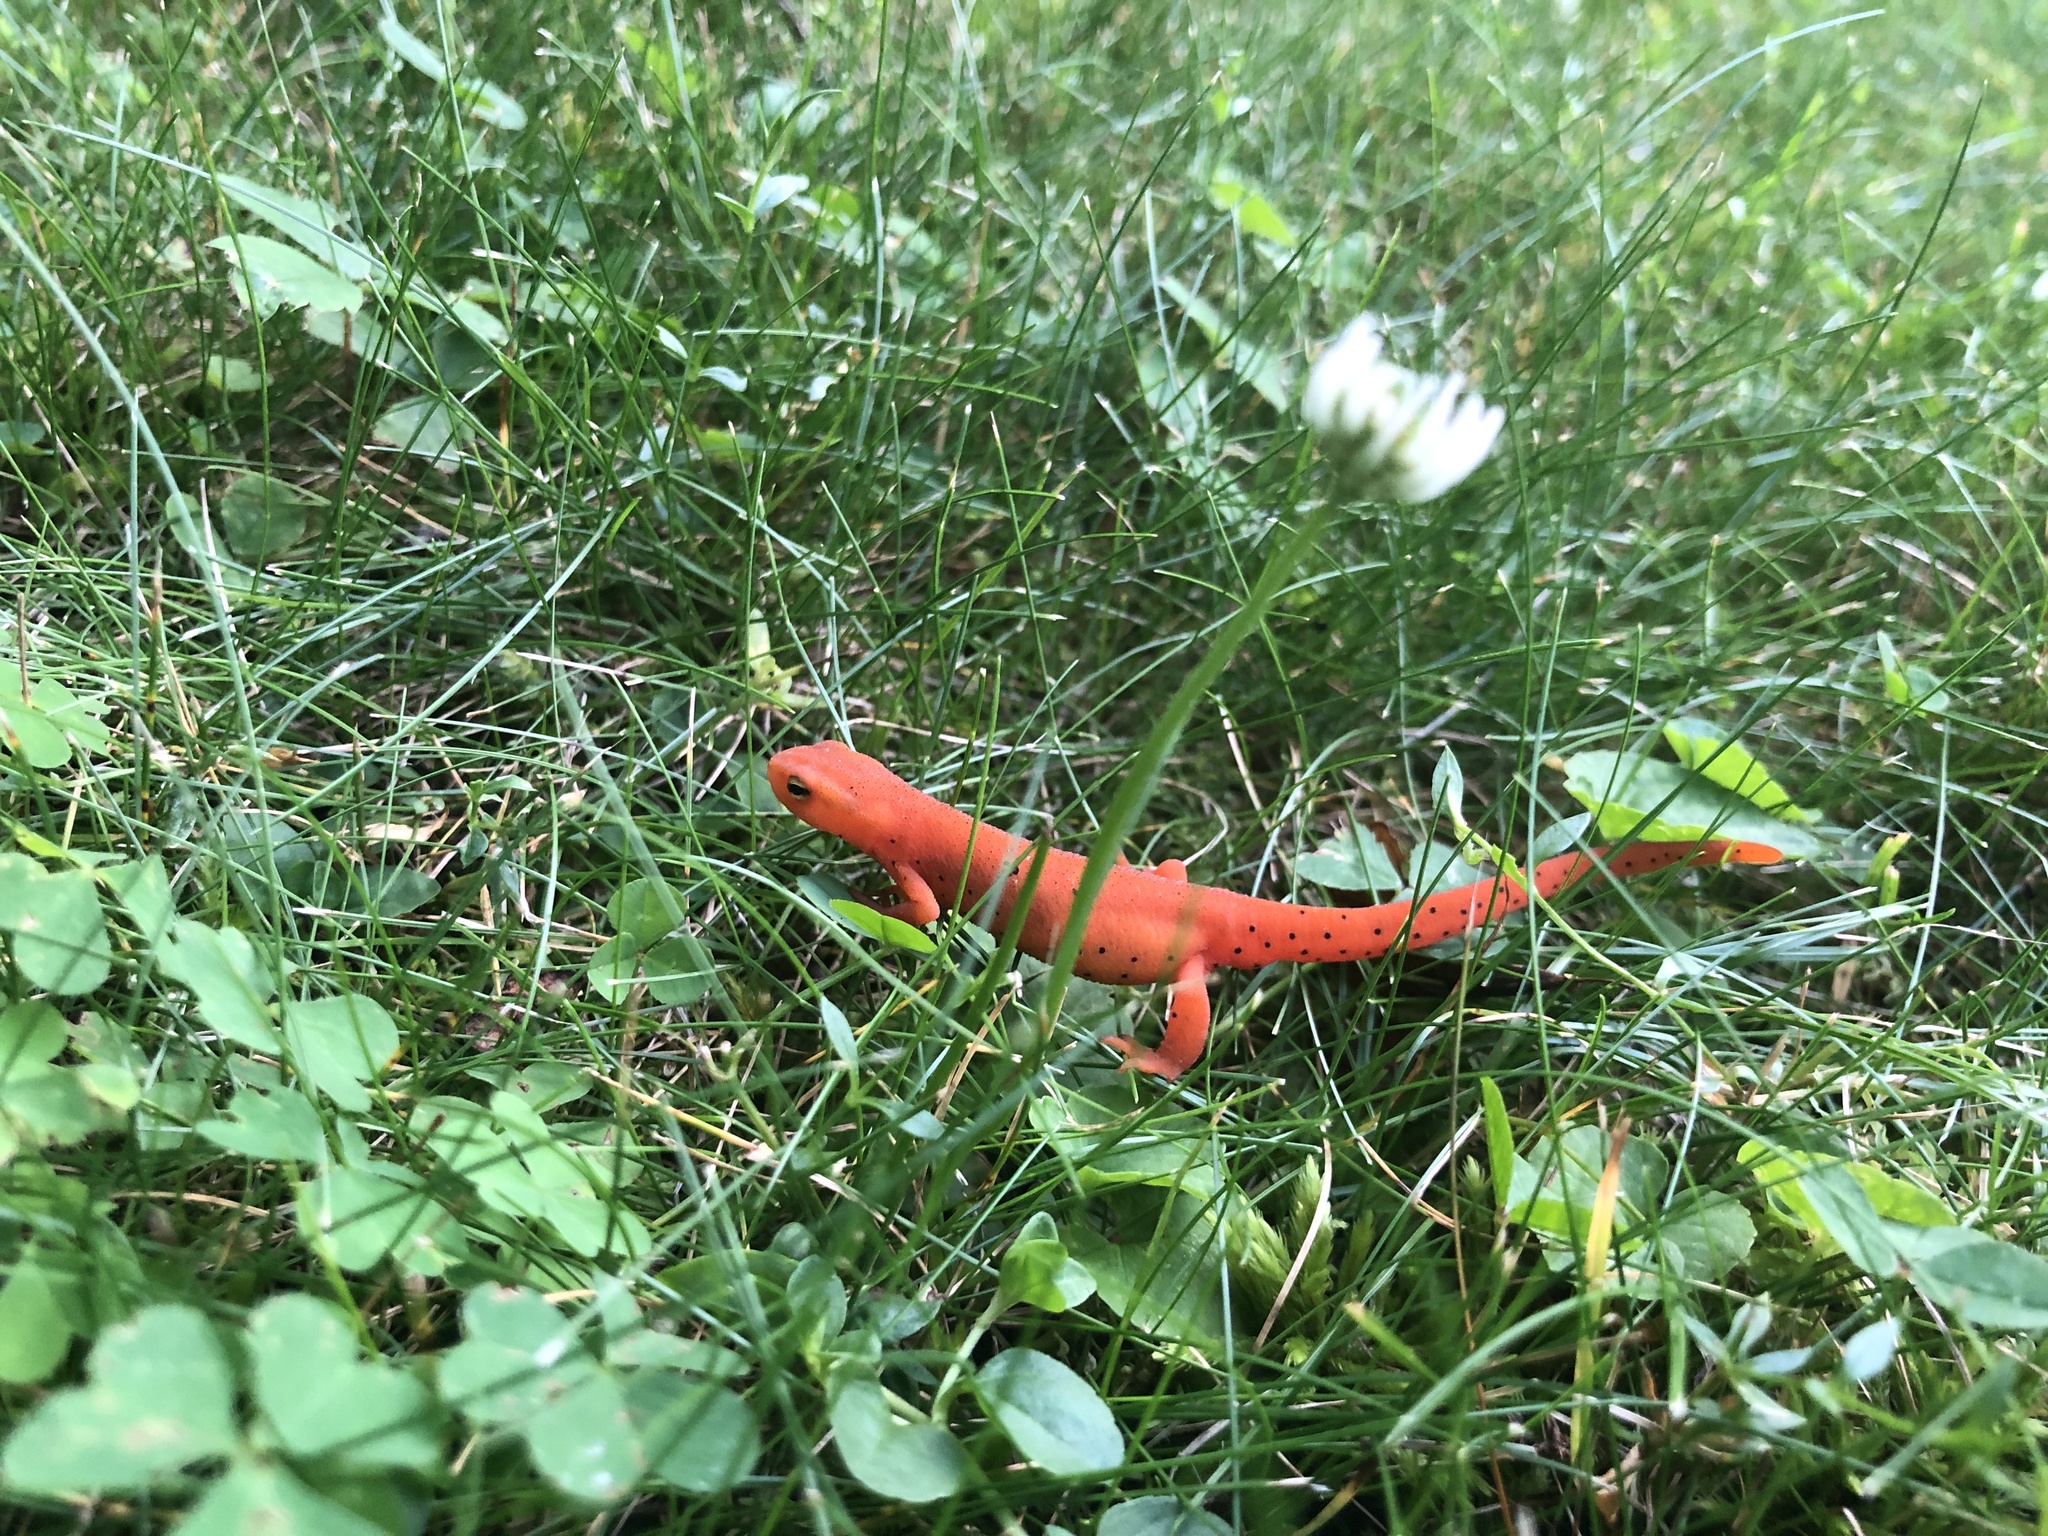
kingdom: Animalia
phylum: Chordata
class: Amphibia
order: Caudata
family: Salamandridae
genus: Notophthalmus
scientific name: Notophthalmus viridescens
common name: Eastern newt
